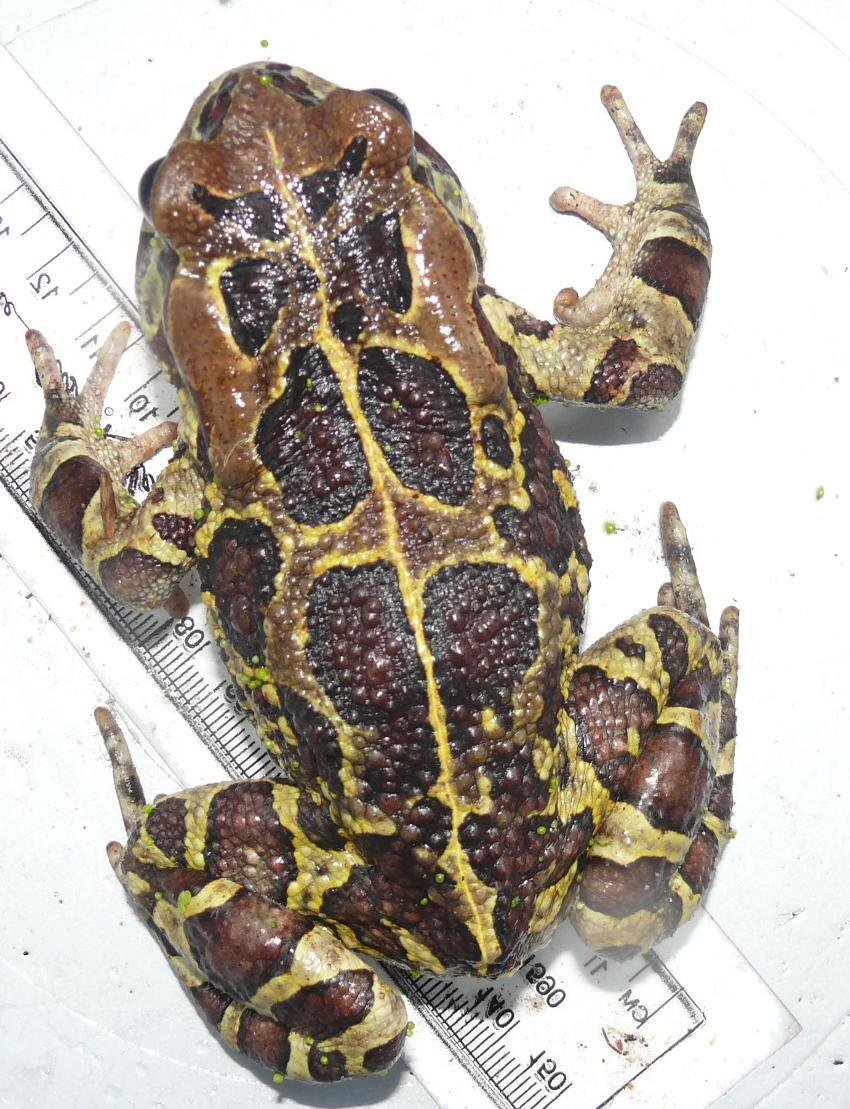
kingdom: Animalia
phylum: Chordata
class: Amphibia
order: Anura
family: Bufonidae
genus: Sclerophrys
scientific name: Sclerophrys pantherina
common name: Panther toad
